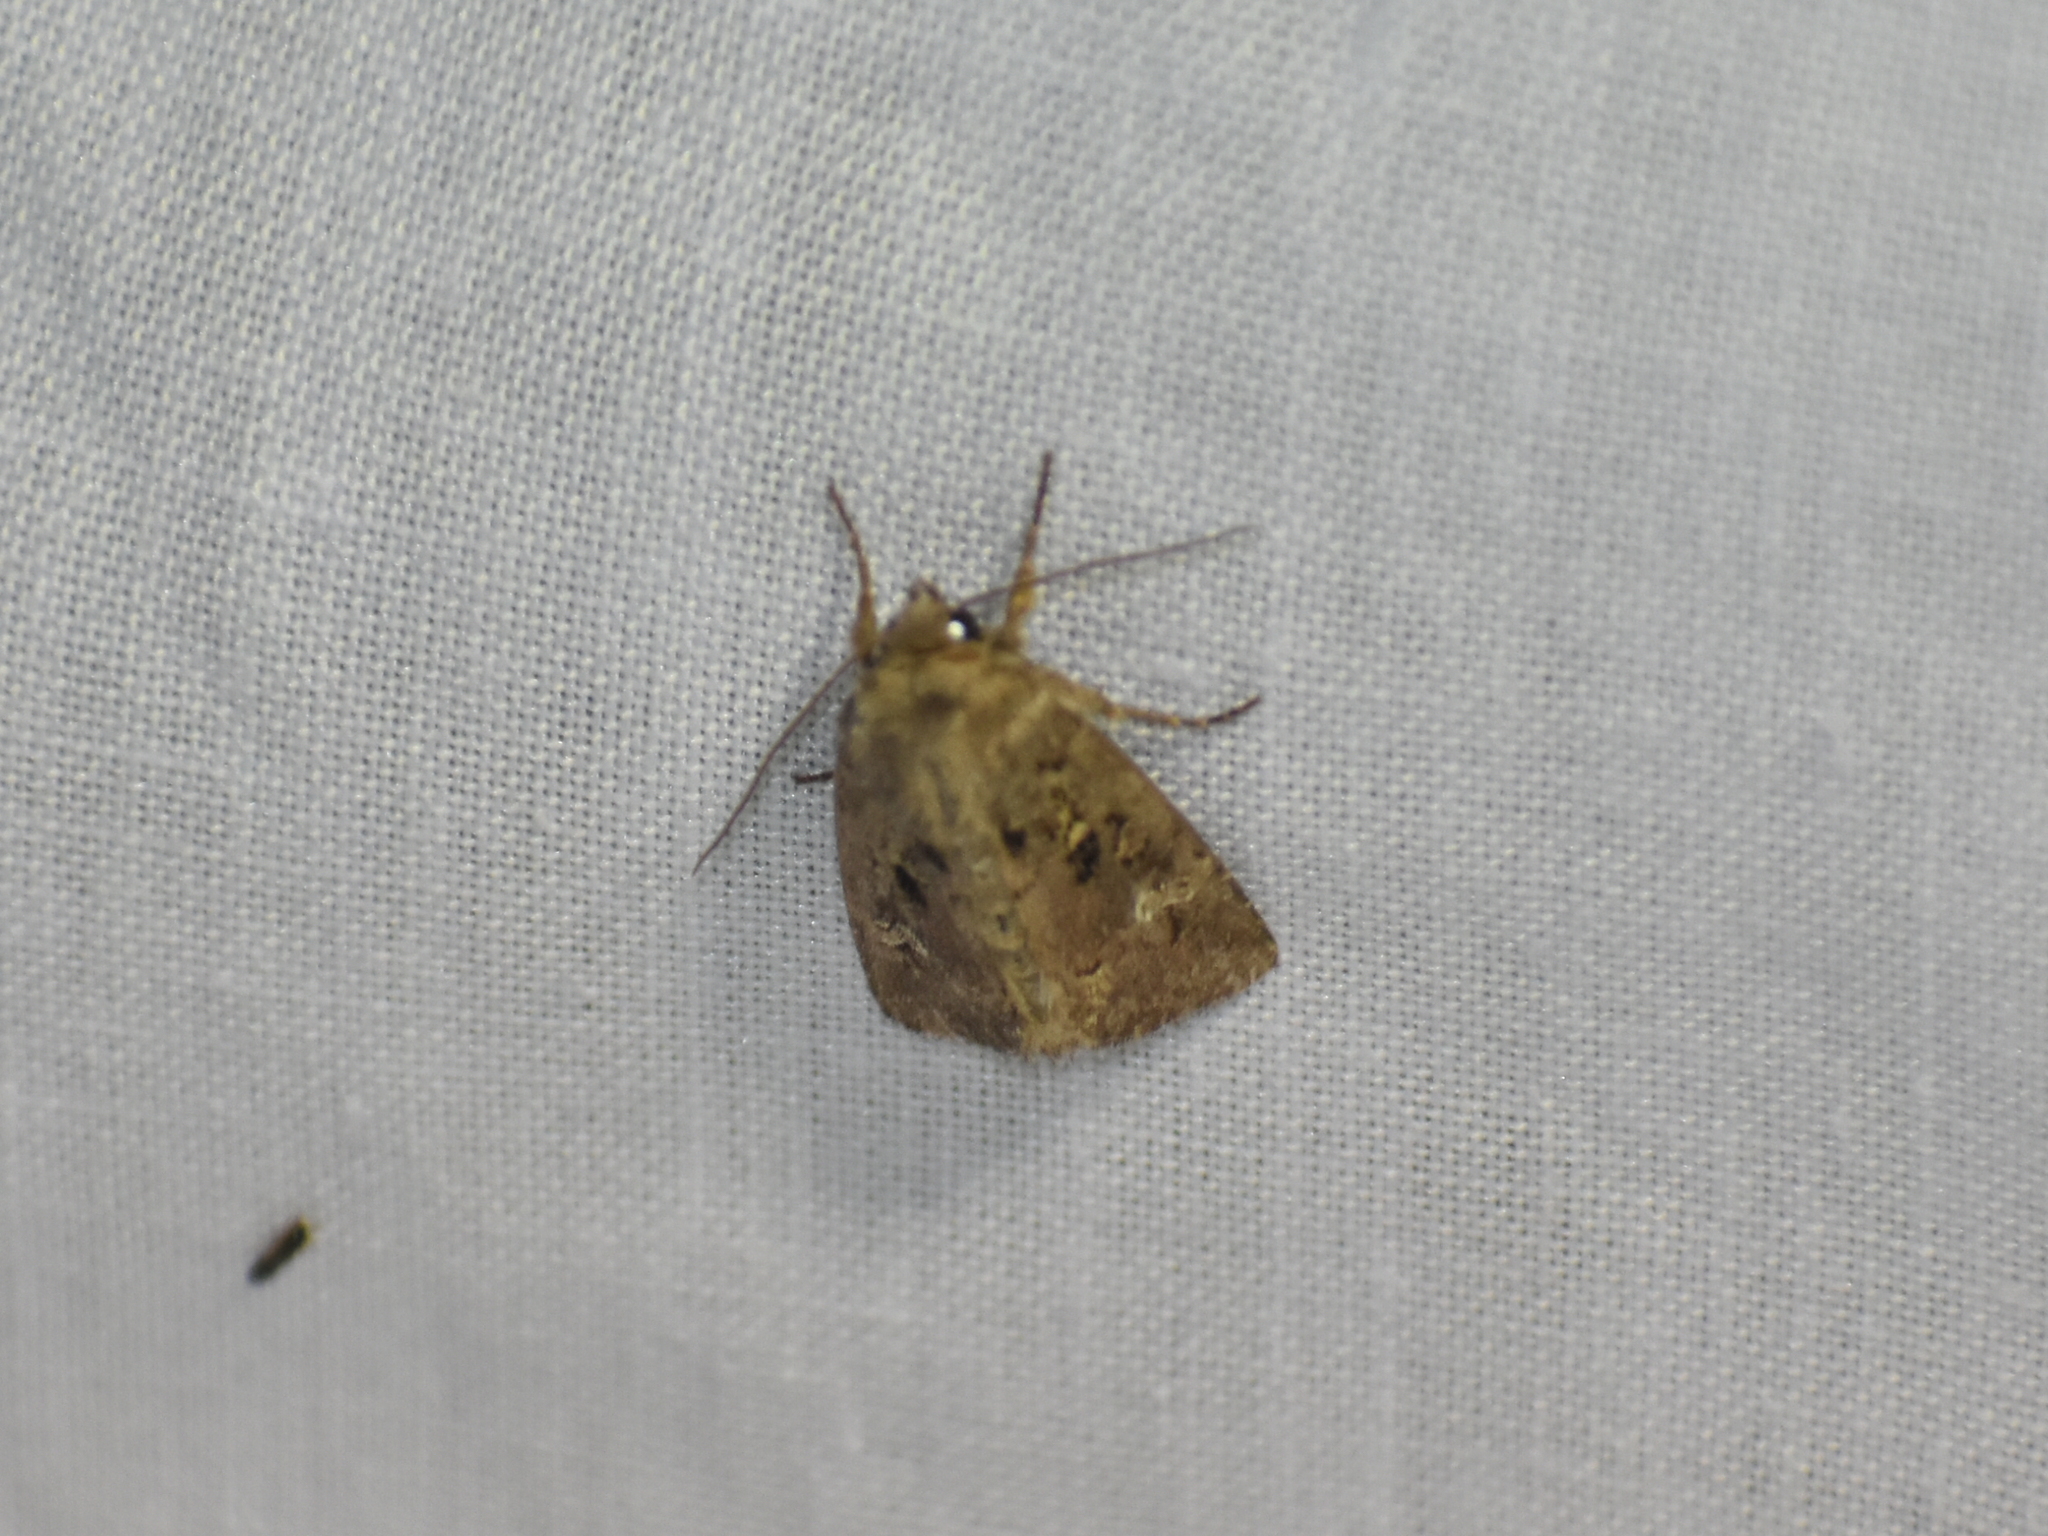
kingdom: Animalia
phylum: Arthropoda
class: Insecta
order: Lepidoptera
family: Noctuidae
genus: Lacinipolia
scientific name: Lacinipolia renigera
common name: Kidney-spotted minor
